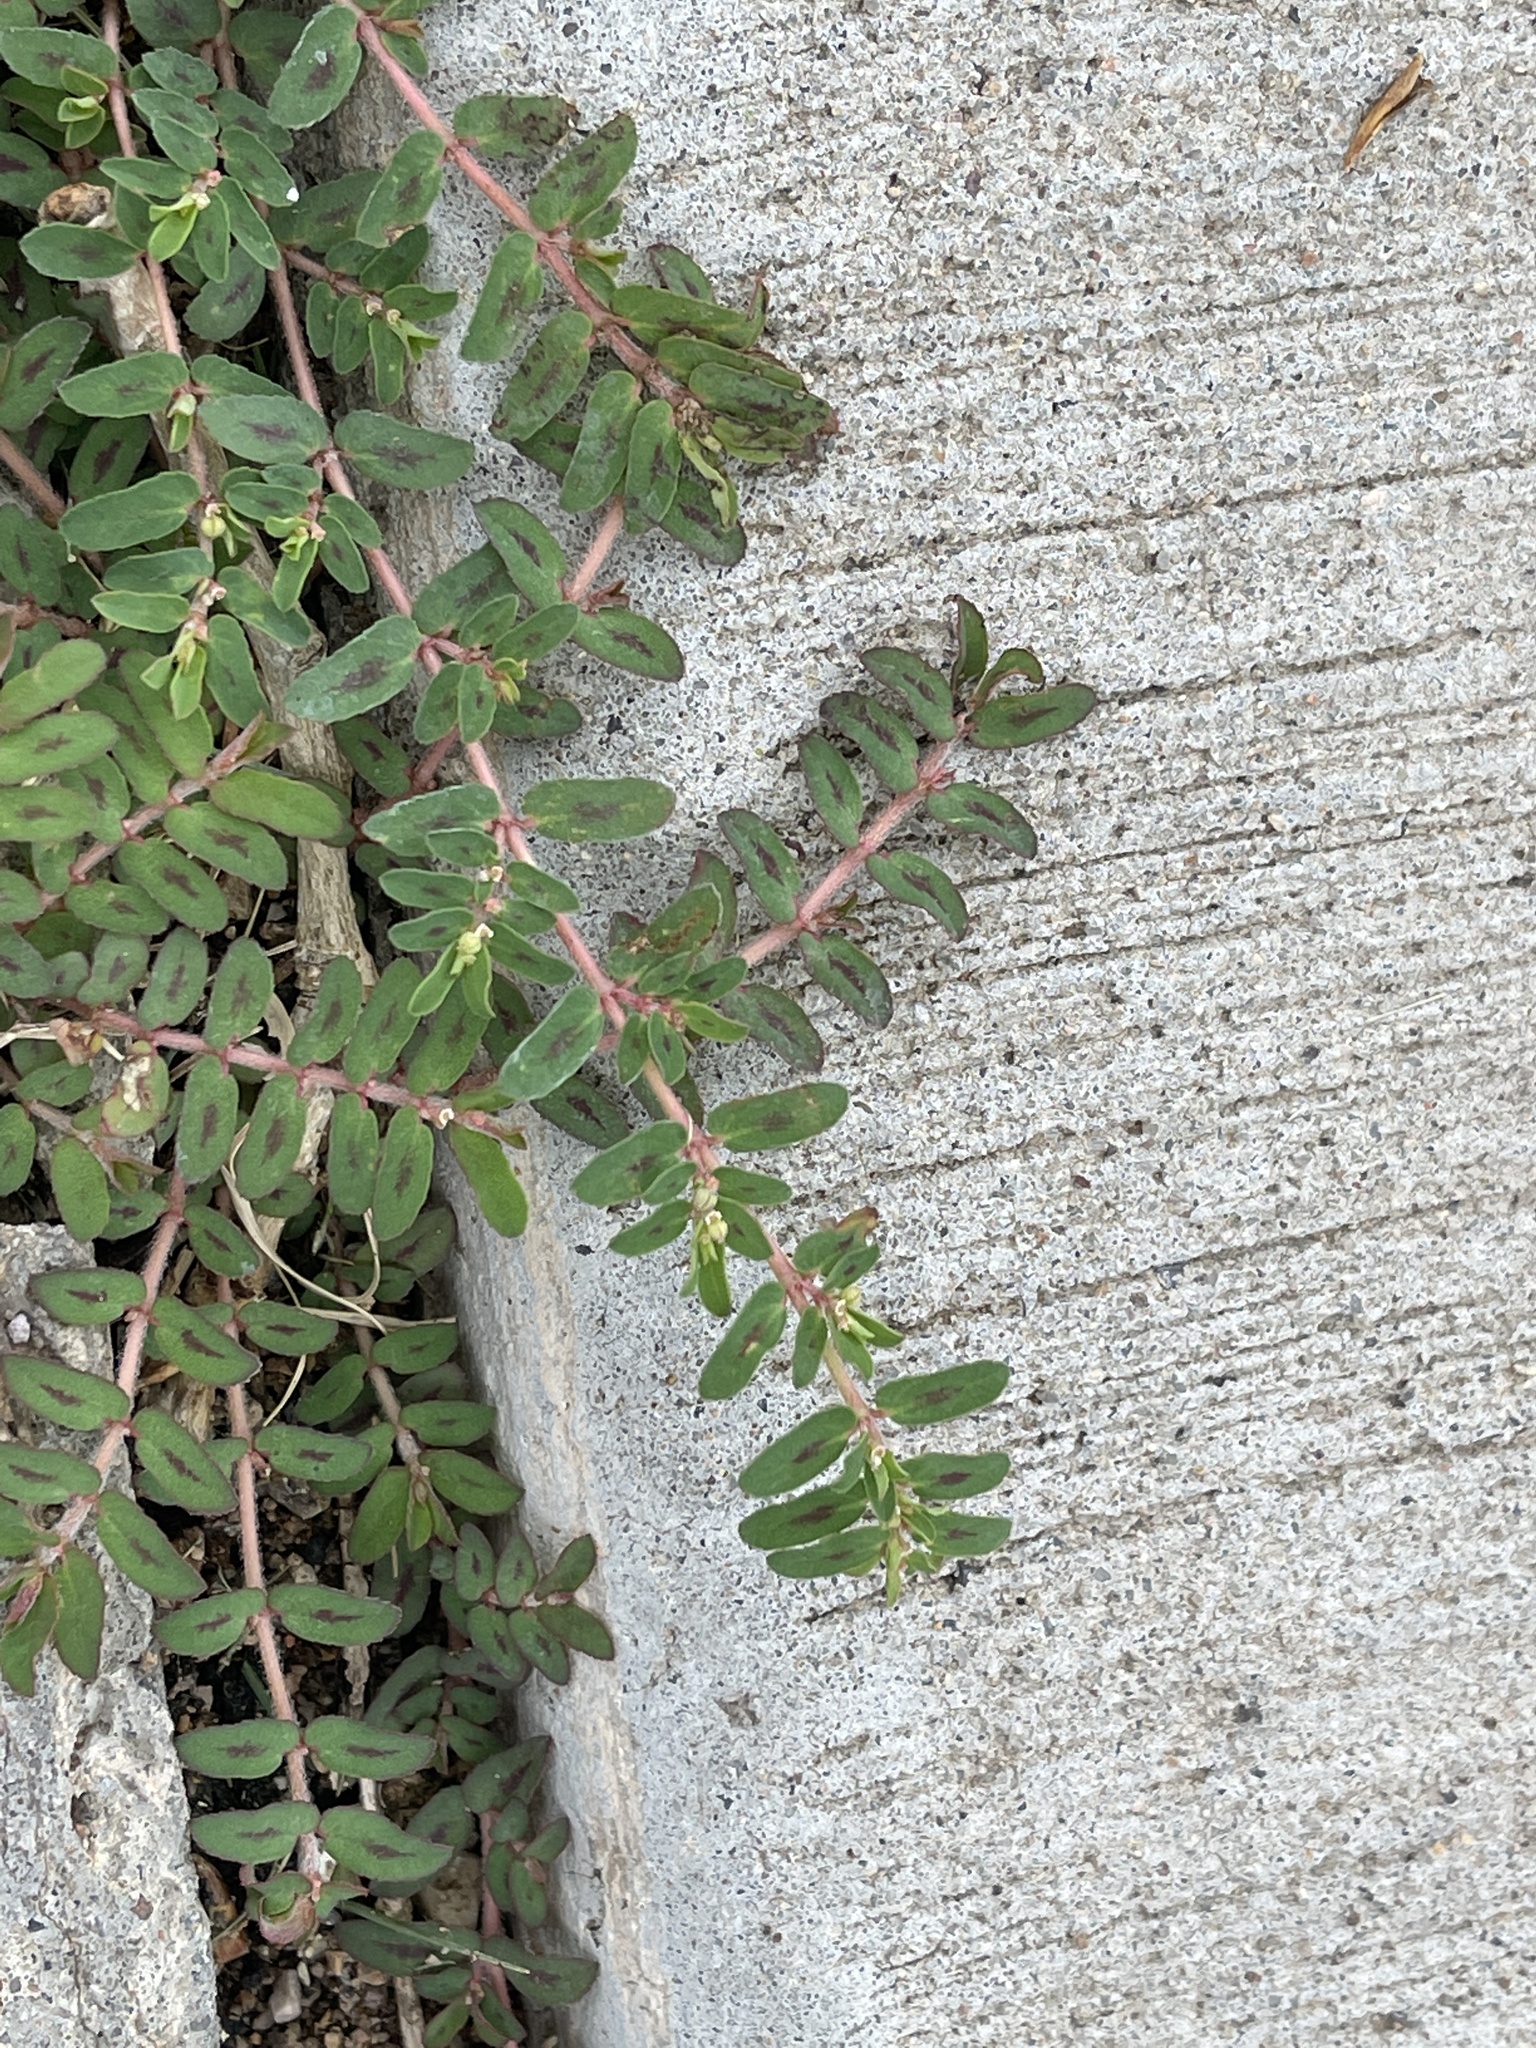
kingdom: Plantae
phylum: Tracheophyta
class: Magnoliopsida
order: Malpighiales
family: Euphorbiaceae
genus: Euphorbia
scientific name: Euphorbia maculata
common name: Spotted spurge
